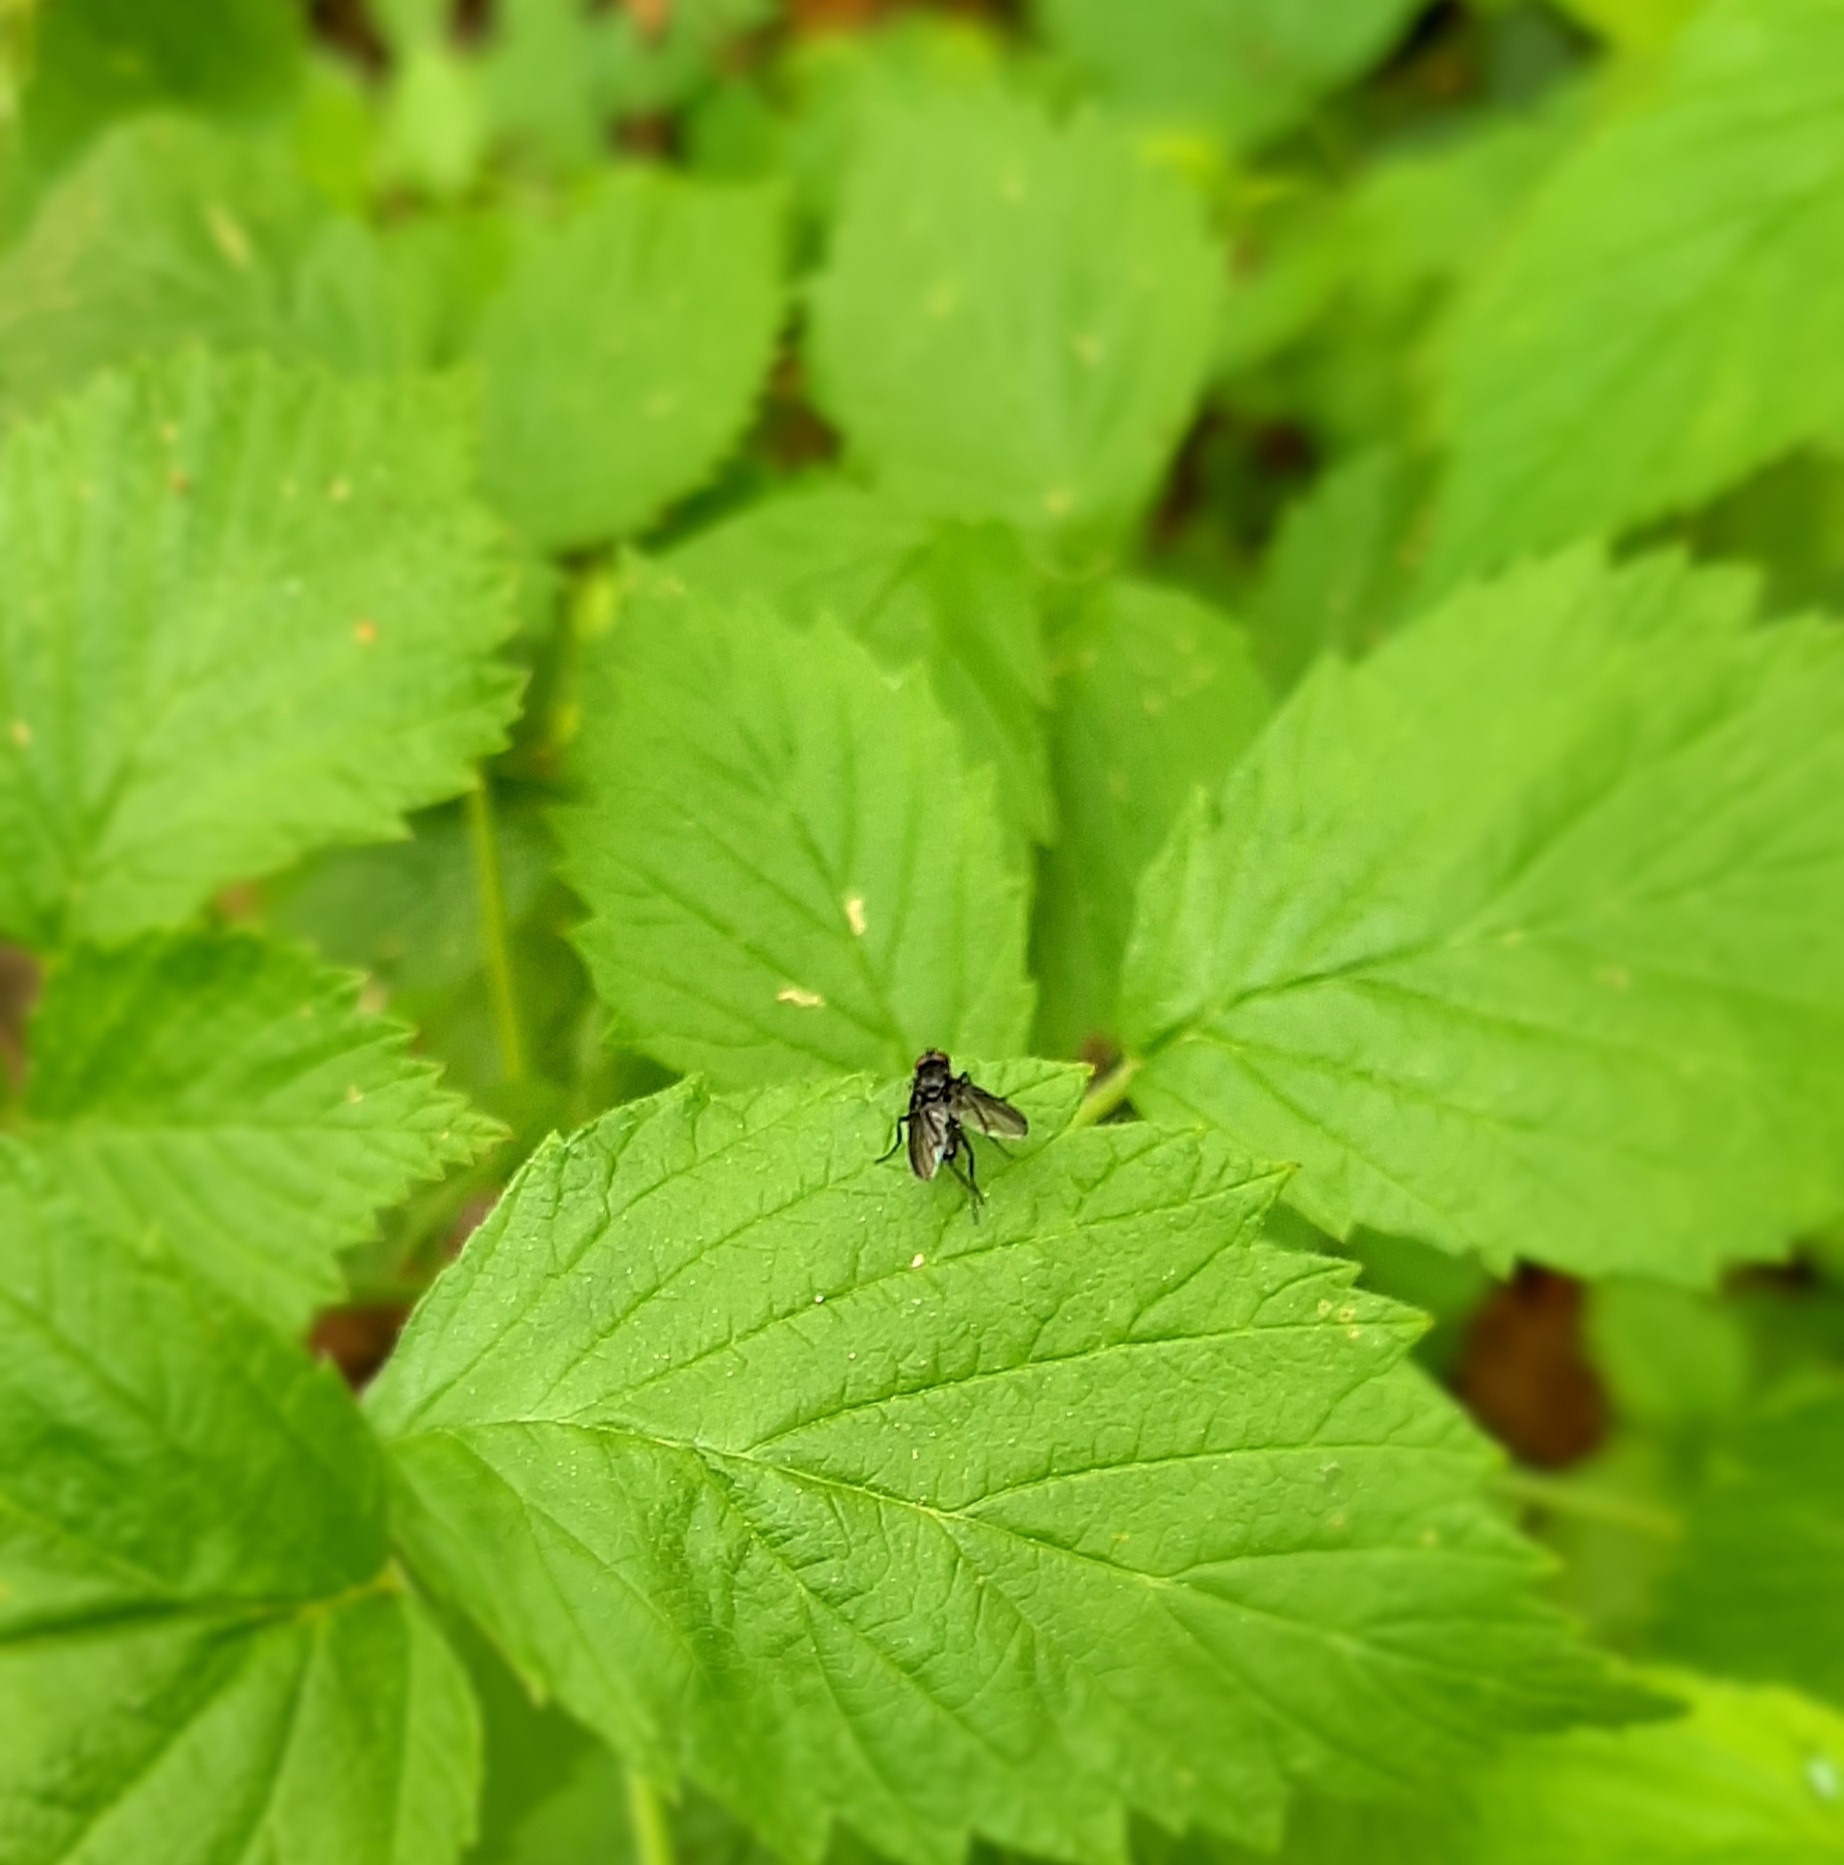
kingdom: Animalia
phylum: Arthropoda
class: Insecta
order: Diptera
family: Polleniidae
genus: Morinia
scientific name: Morinia
